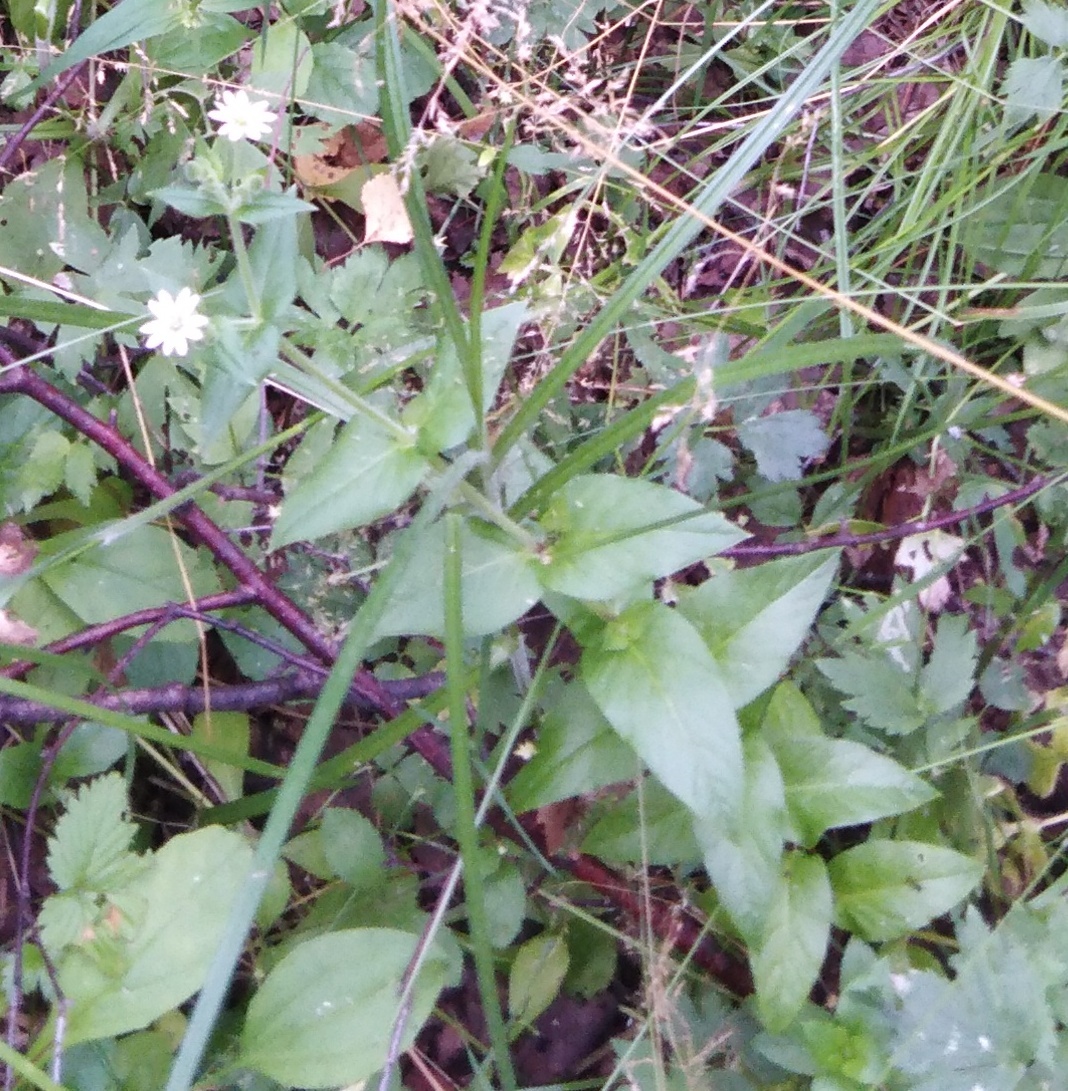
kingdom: Plantae
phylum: Tracheophyta
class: Magnoliopsida
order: Caryophyllales
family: Caryophyllaceae
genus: Stellaria
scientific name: Stellaria aquatica
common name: Water chickweed
